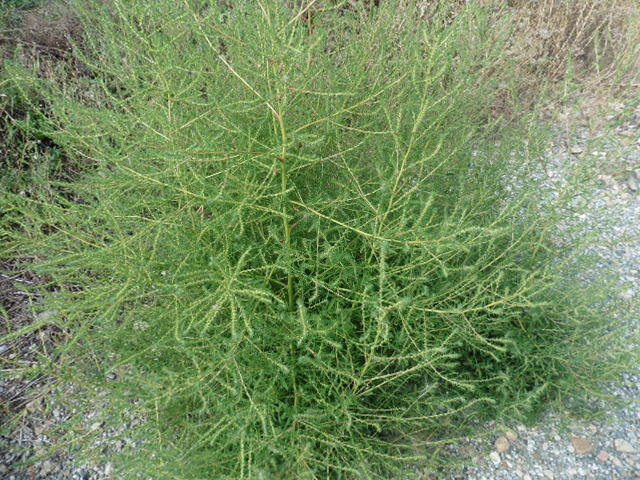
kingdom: Plantae
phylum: Tracheophyta
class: Magnoliopsida
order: Caryophyllales
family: Amaranthaceae
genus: Bassia
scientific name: Bassia scoparia
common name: Belvedere
